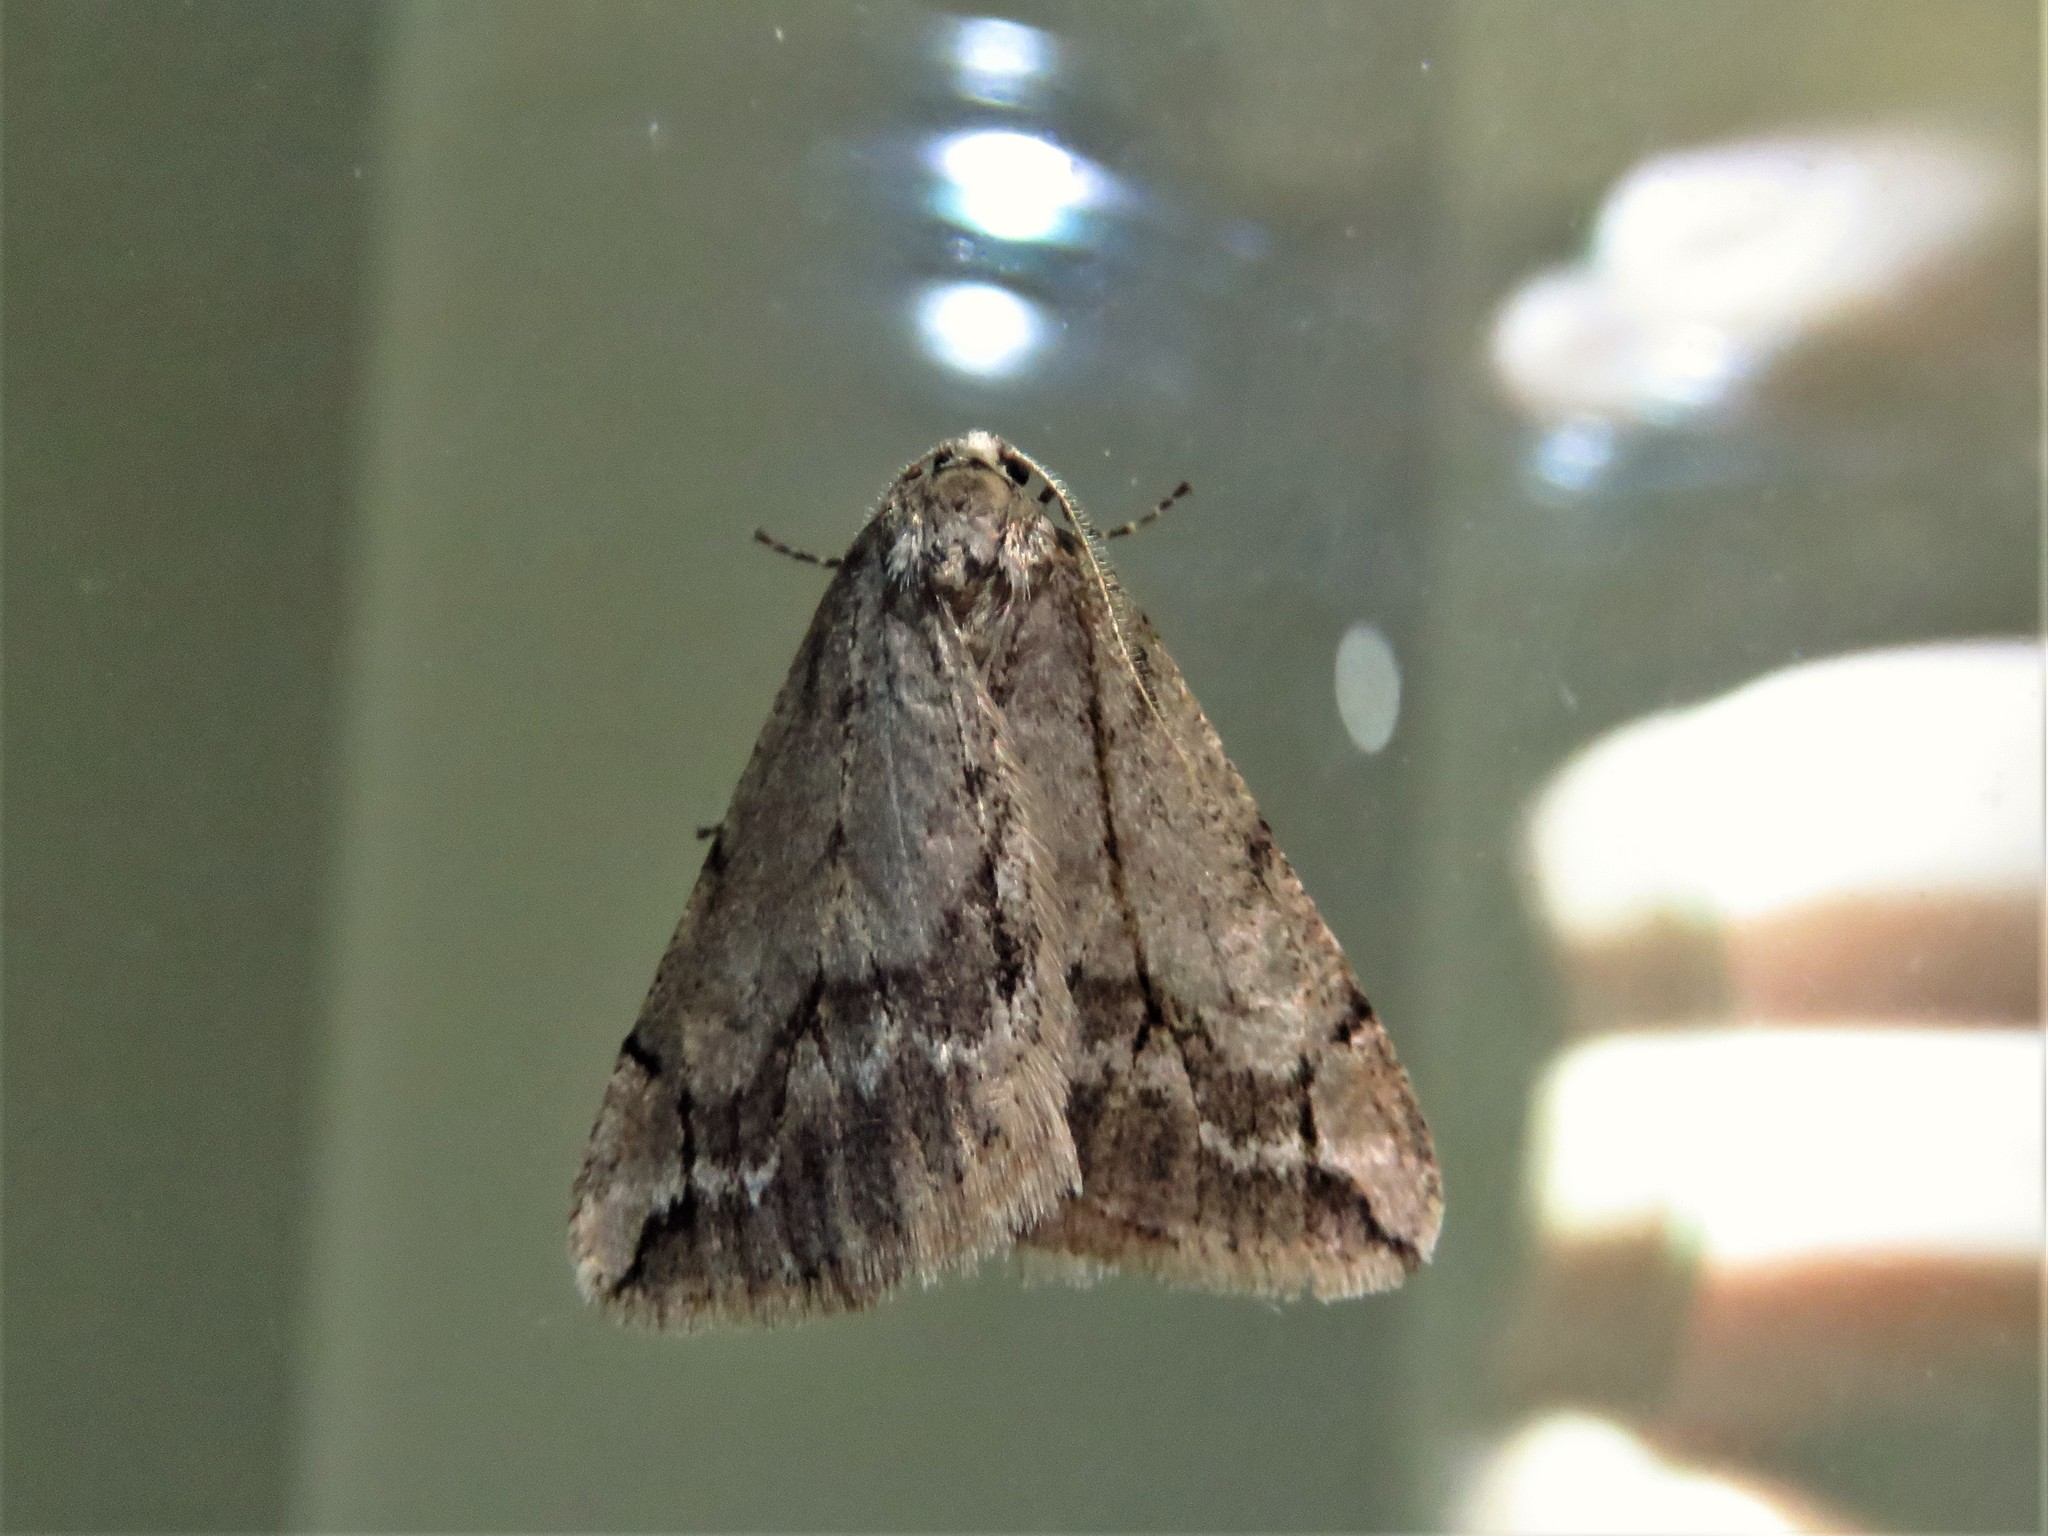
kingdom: Animalia
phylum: Arthropoda
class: Insecta
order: Lepidoptera
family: Geometridae
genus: Paleacrita
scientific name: Paleacrita vernata
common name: Spring cankerworm
